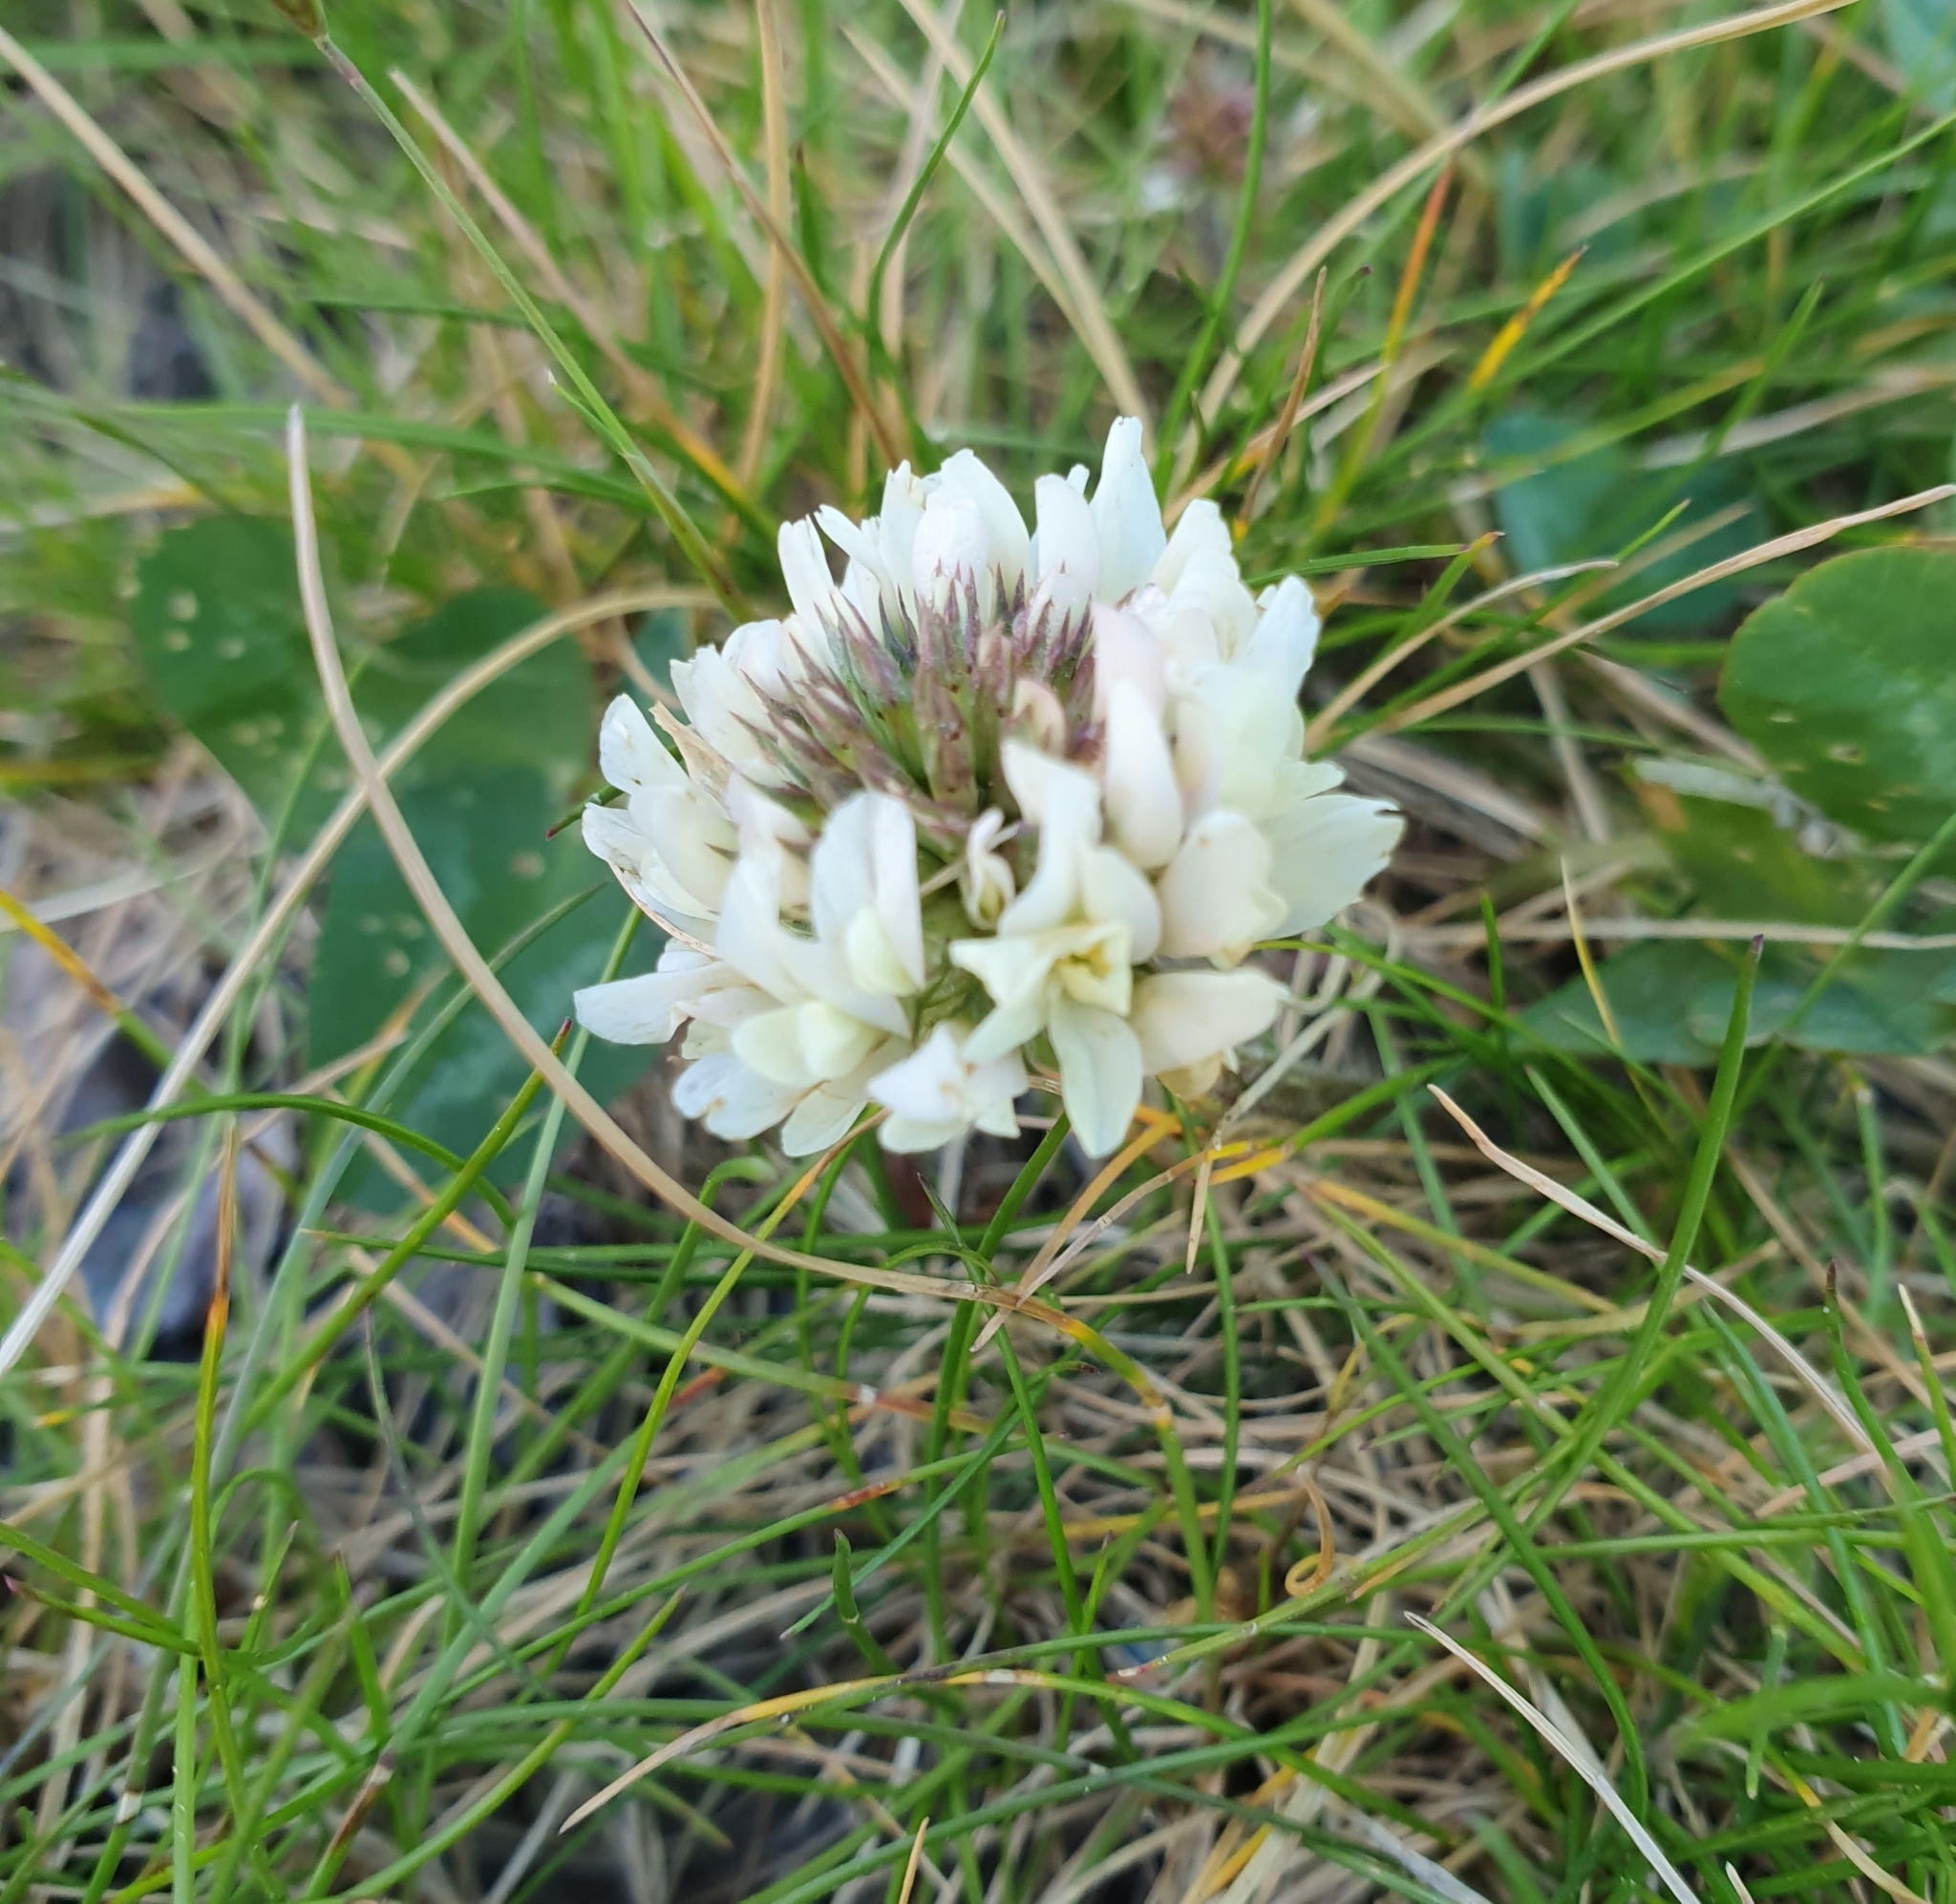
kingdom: Plantae
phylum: Tracheophyta
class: Magnoliopsida
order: Fabales
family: Fabaceae
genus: Trifolium
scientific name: Trifolium repens
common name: White clover
